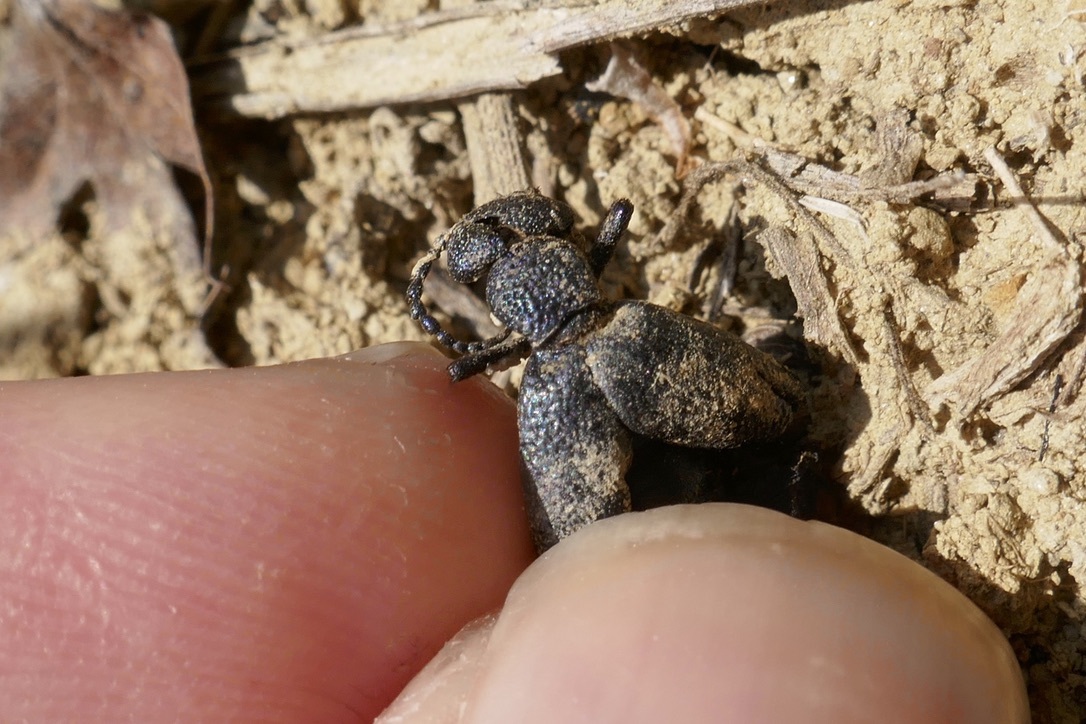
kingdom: Animalia
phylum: Arthropoda
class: Insecta
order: Coleoptera
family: Meloidae
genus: Meloe
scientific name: Meloe proscarabaeus
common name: Black oil-beetle
